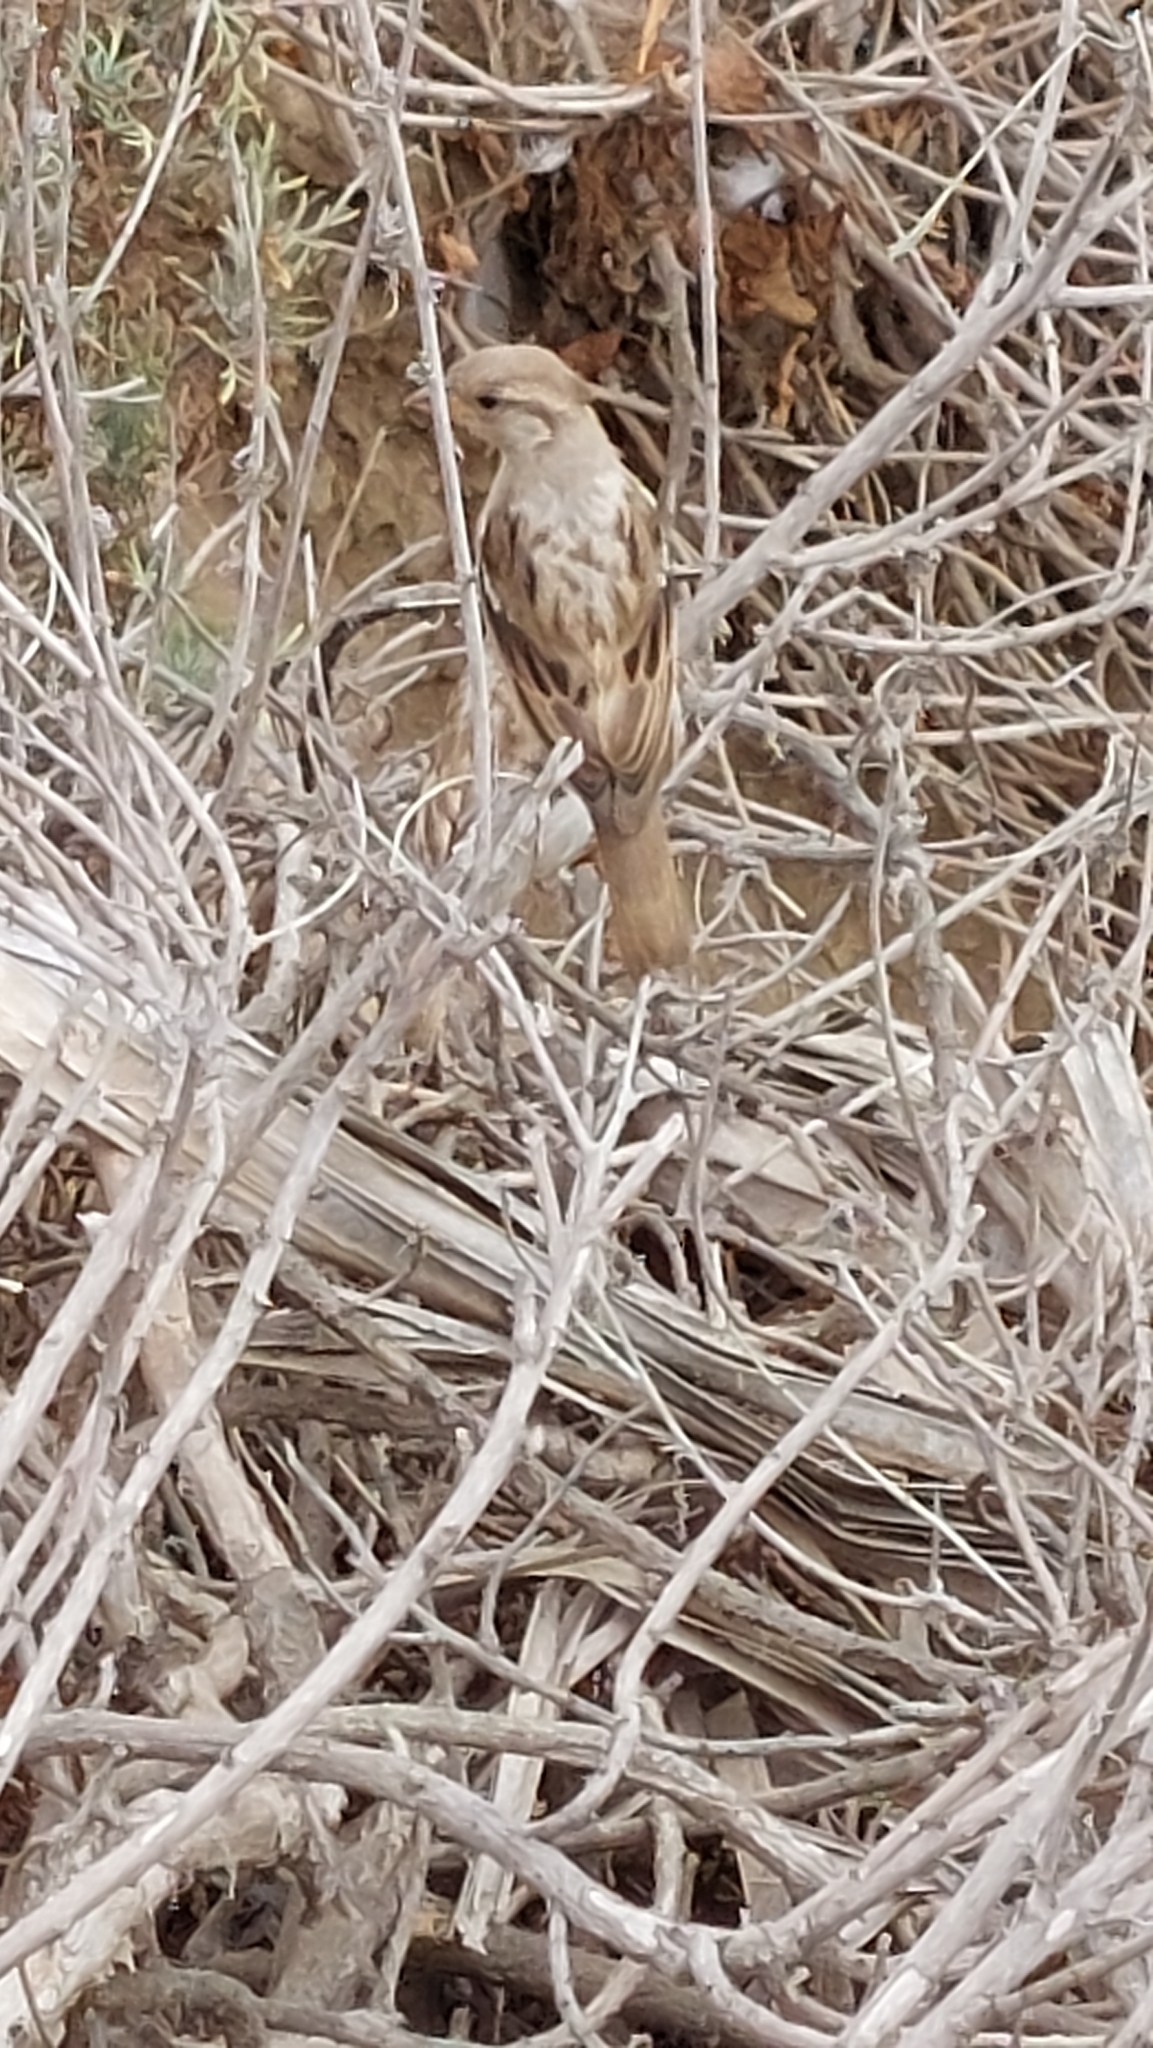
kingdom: Animalia
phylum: Chordata
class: Aves
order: Passeriformes
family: Passeridae
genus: Passer
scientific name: Passer domesticus
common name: House sparrow
